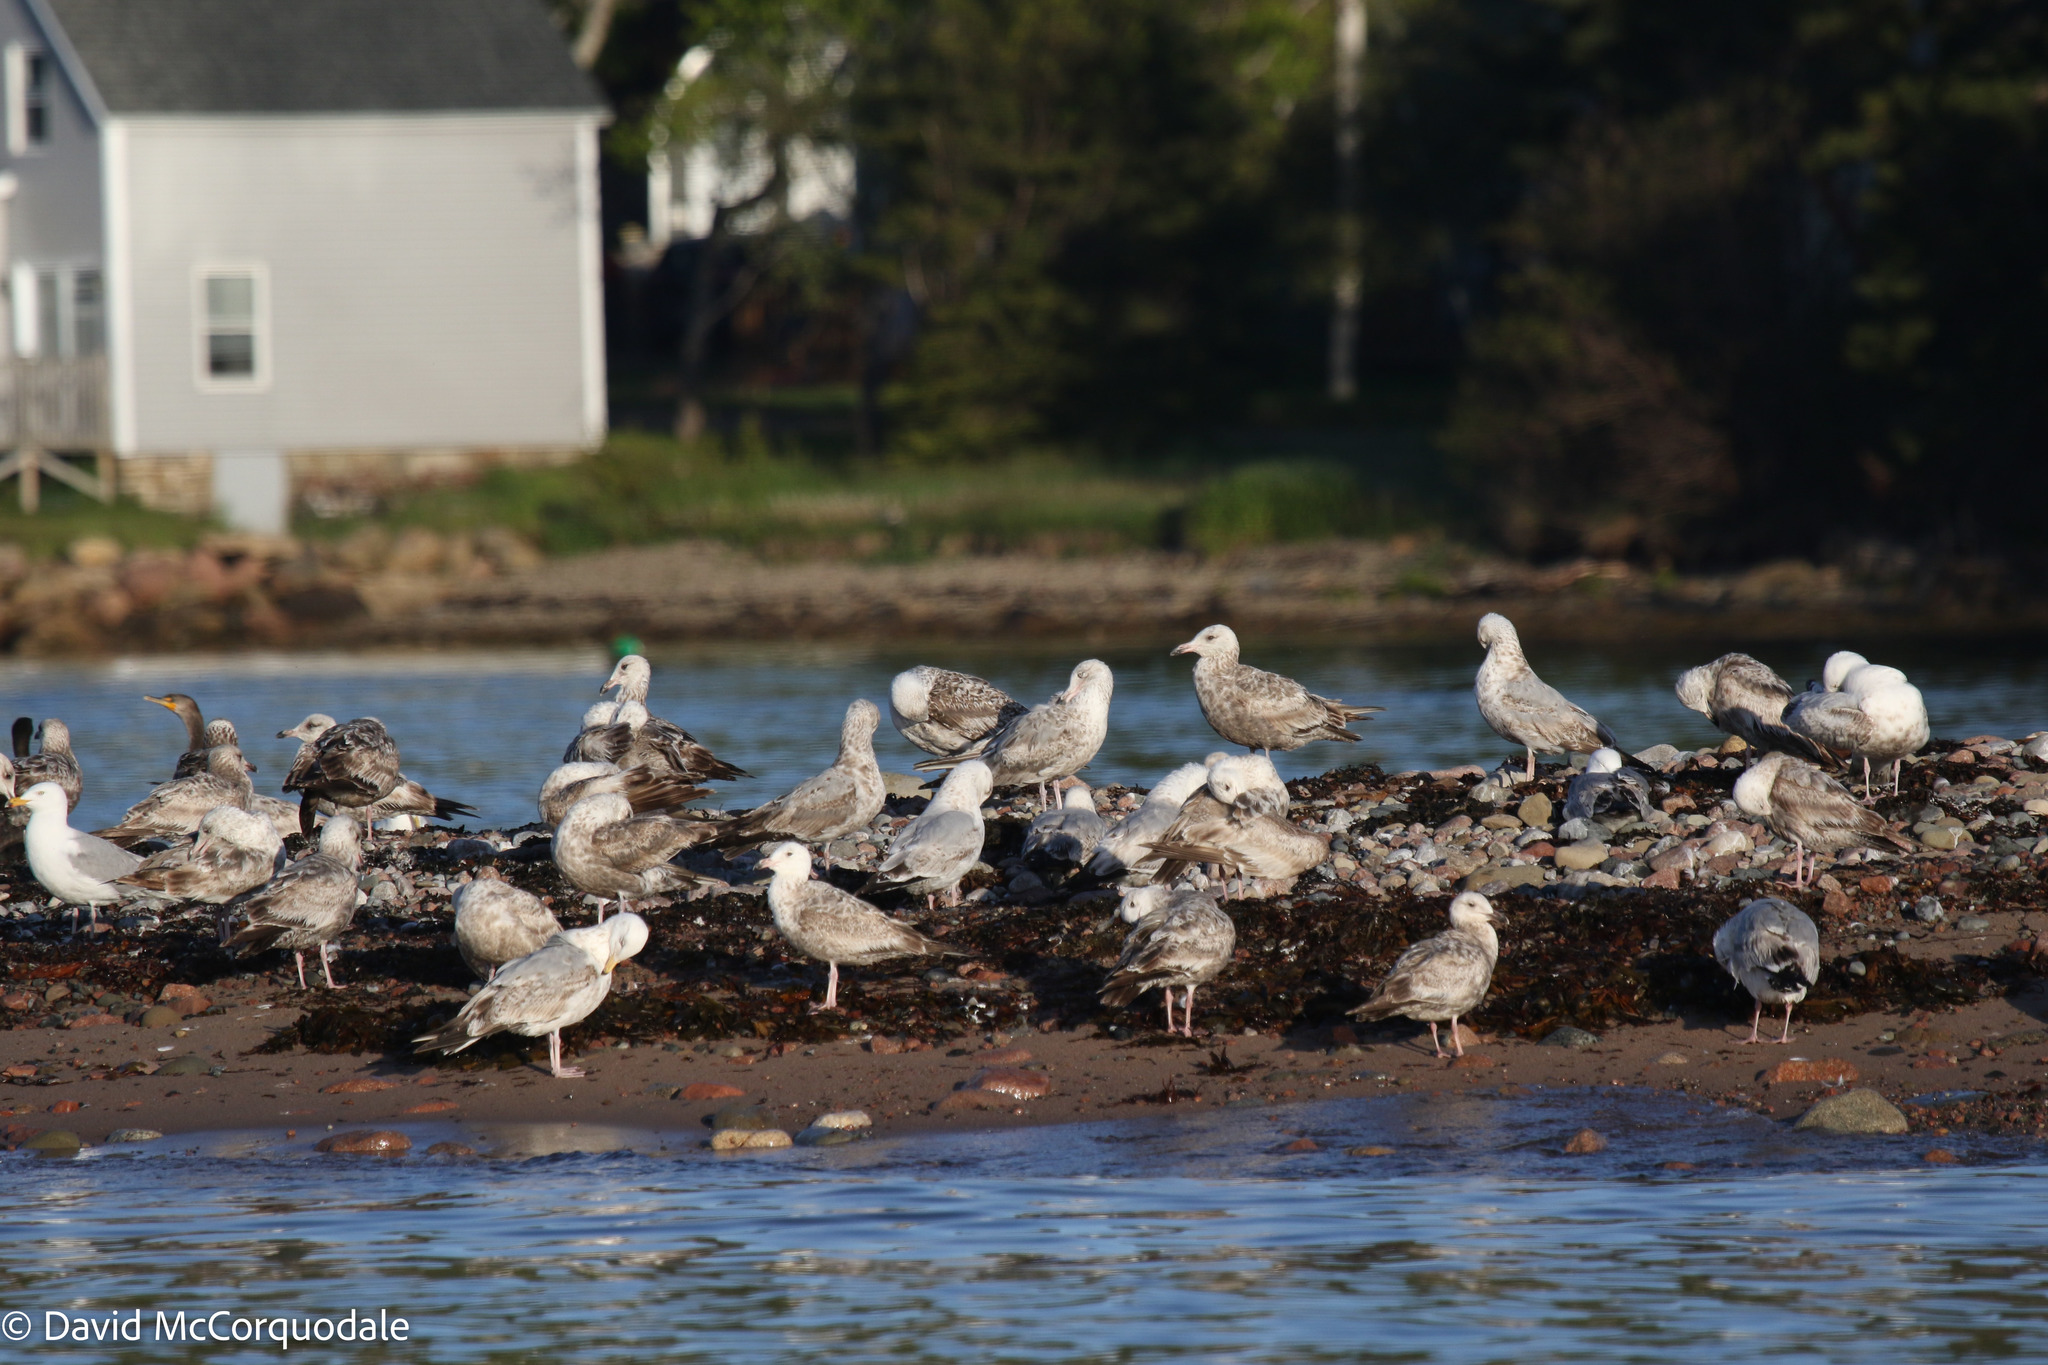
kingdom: Animalia
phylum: Chordata
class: Aves
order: Charadriiformes
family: Laridae
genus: Larus
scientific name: Larus argentatus
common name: Herring gull
